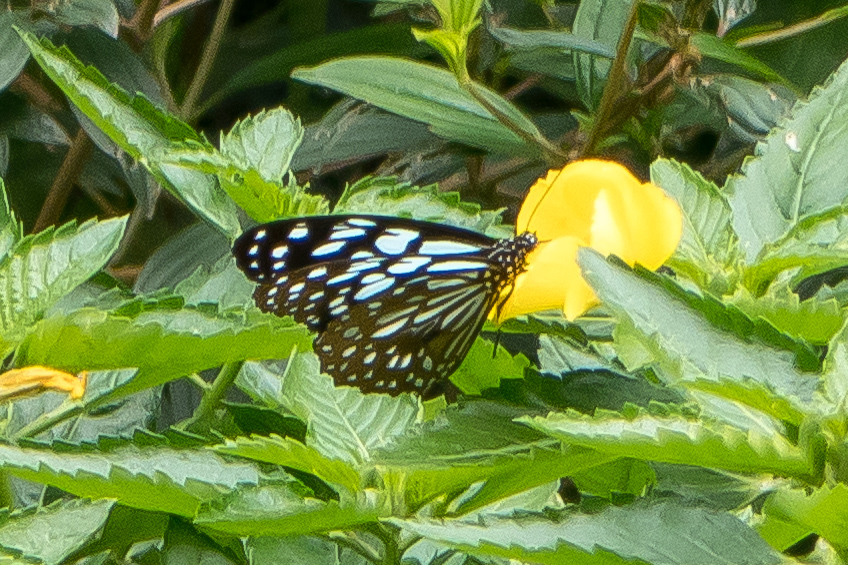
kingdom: Animalia
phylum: Arthropoda
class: Insecta
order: Lepidoptera
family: Nymphalidae
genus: Tirumala
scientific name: Tirumala limniace
